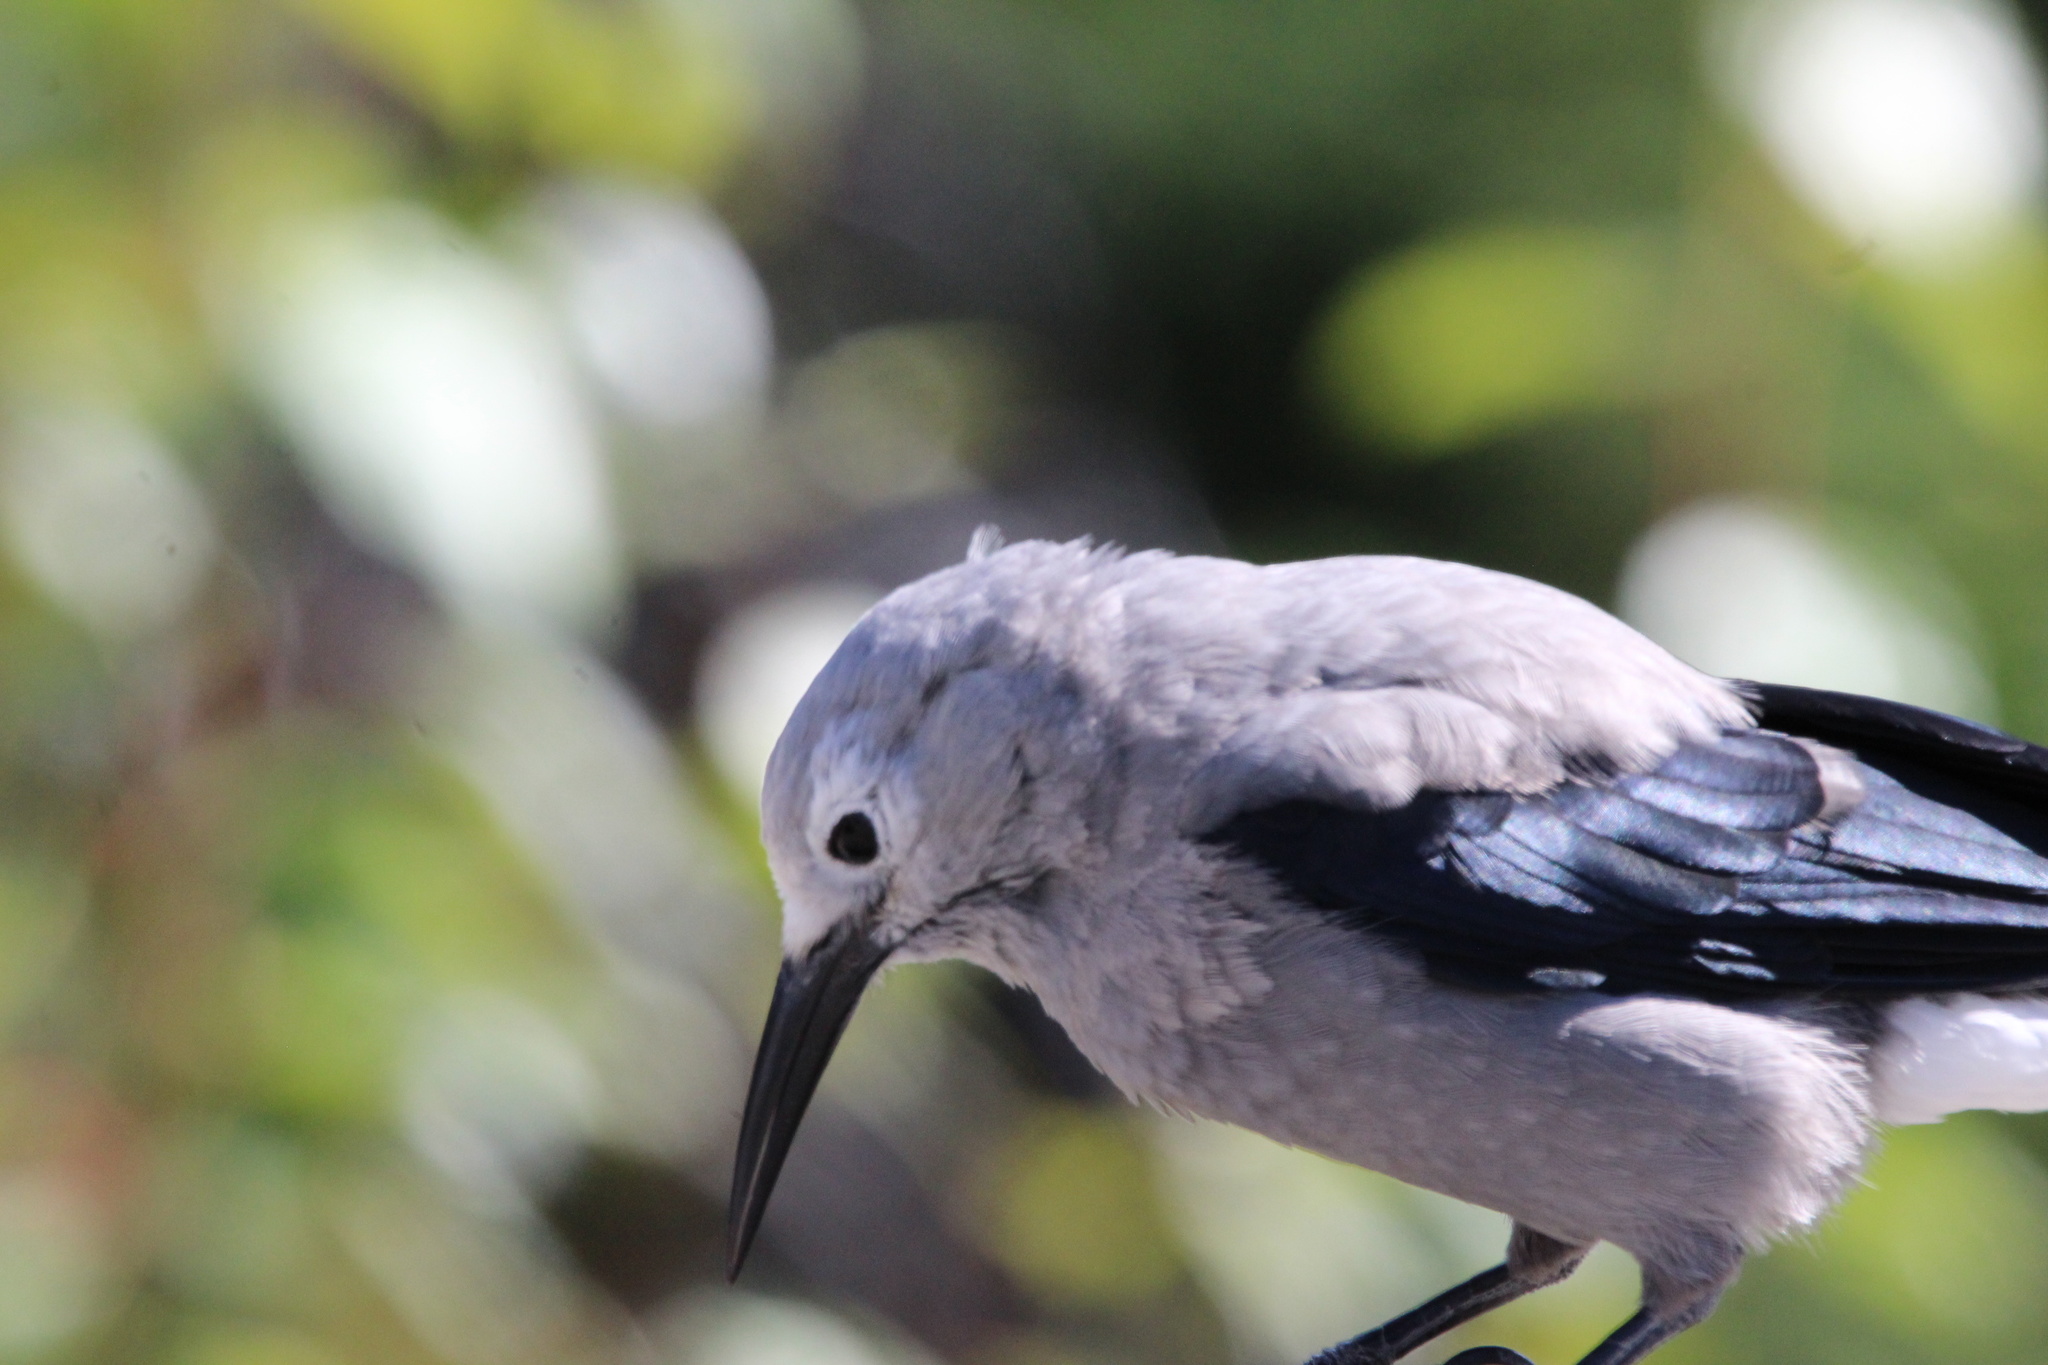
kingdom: Animalia
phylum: Chordata
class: Aves
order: Passeriformes
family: Corvidae
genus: Nucifraga
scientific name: Nucifraga columbiana
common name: Clark's nutcracker
